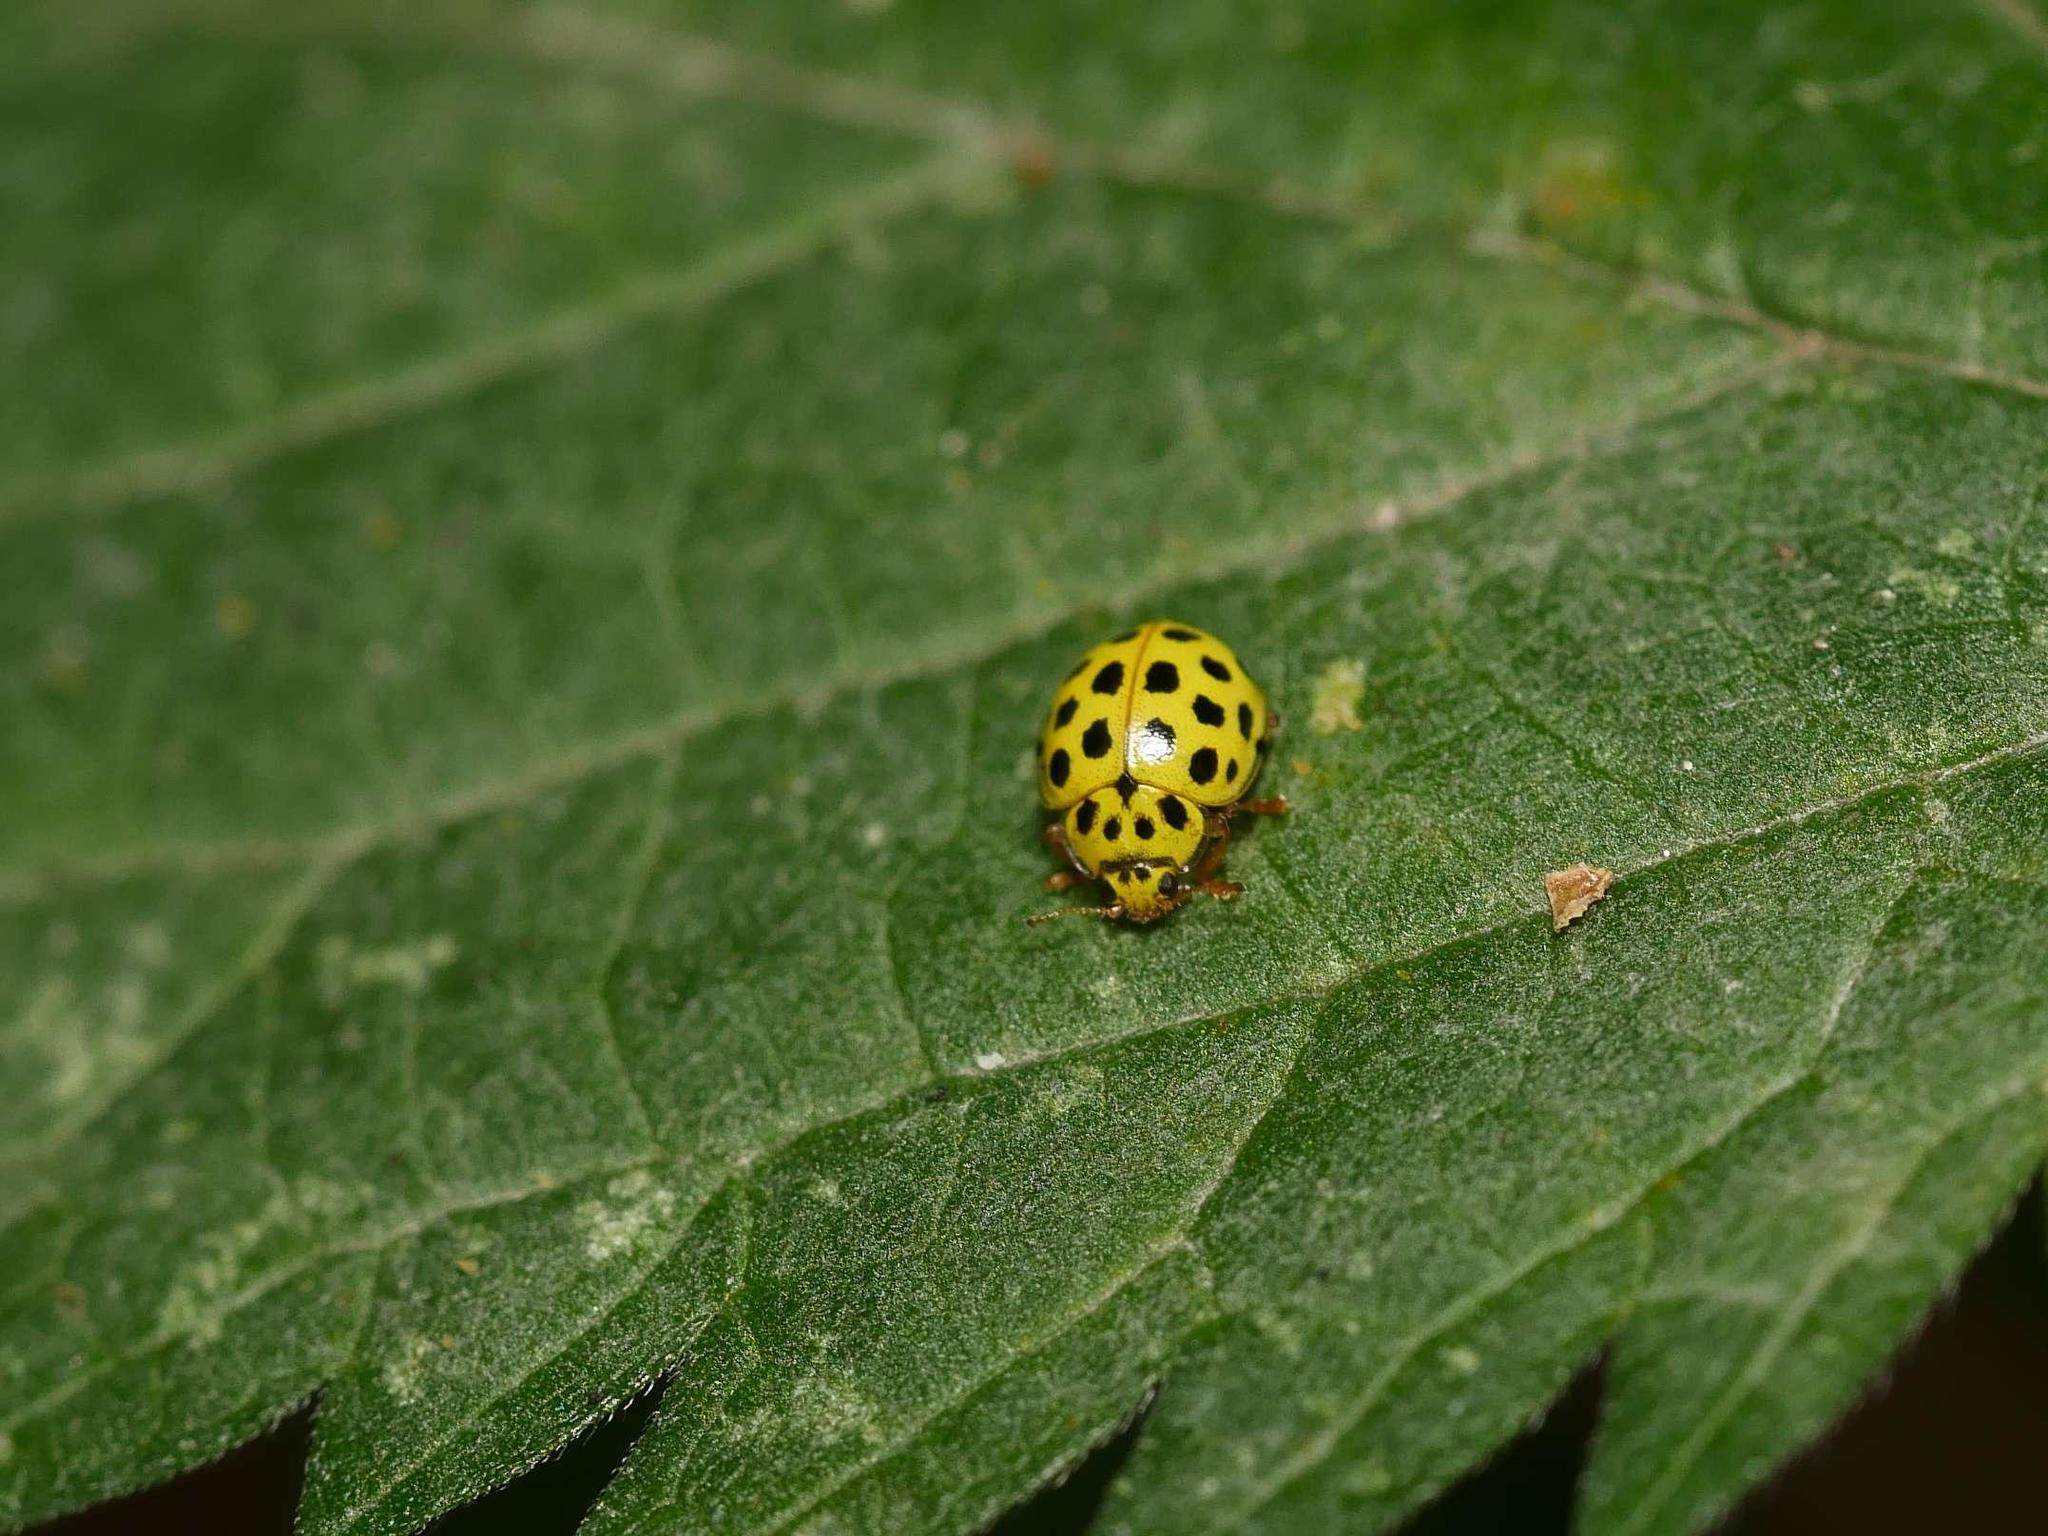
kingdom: Animalia
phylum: Arthropoda
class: Insecta
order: Coleoptera
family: Coccinellidae
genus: Psyllobora
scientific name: Psyllobora vigintiduopunctata
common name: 22-spot ladybird
